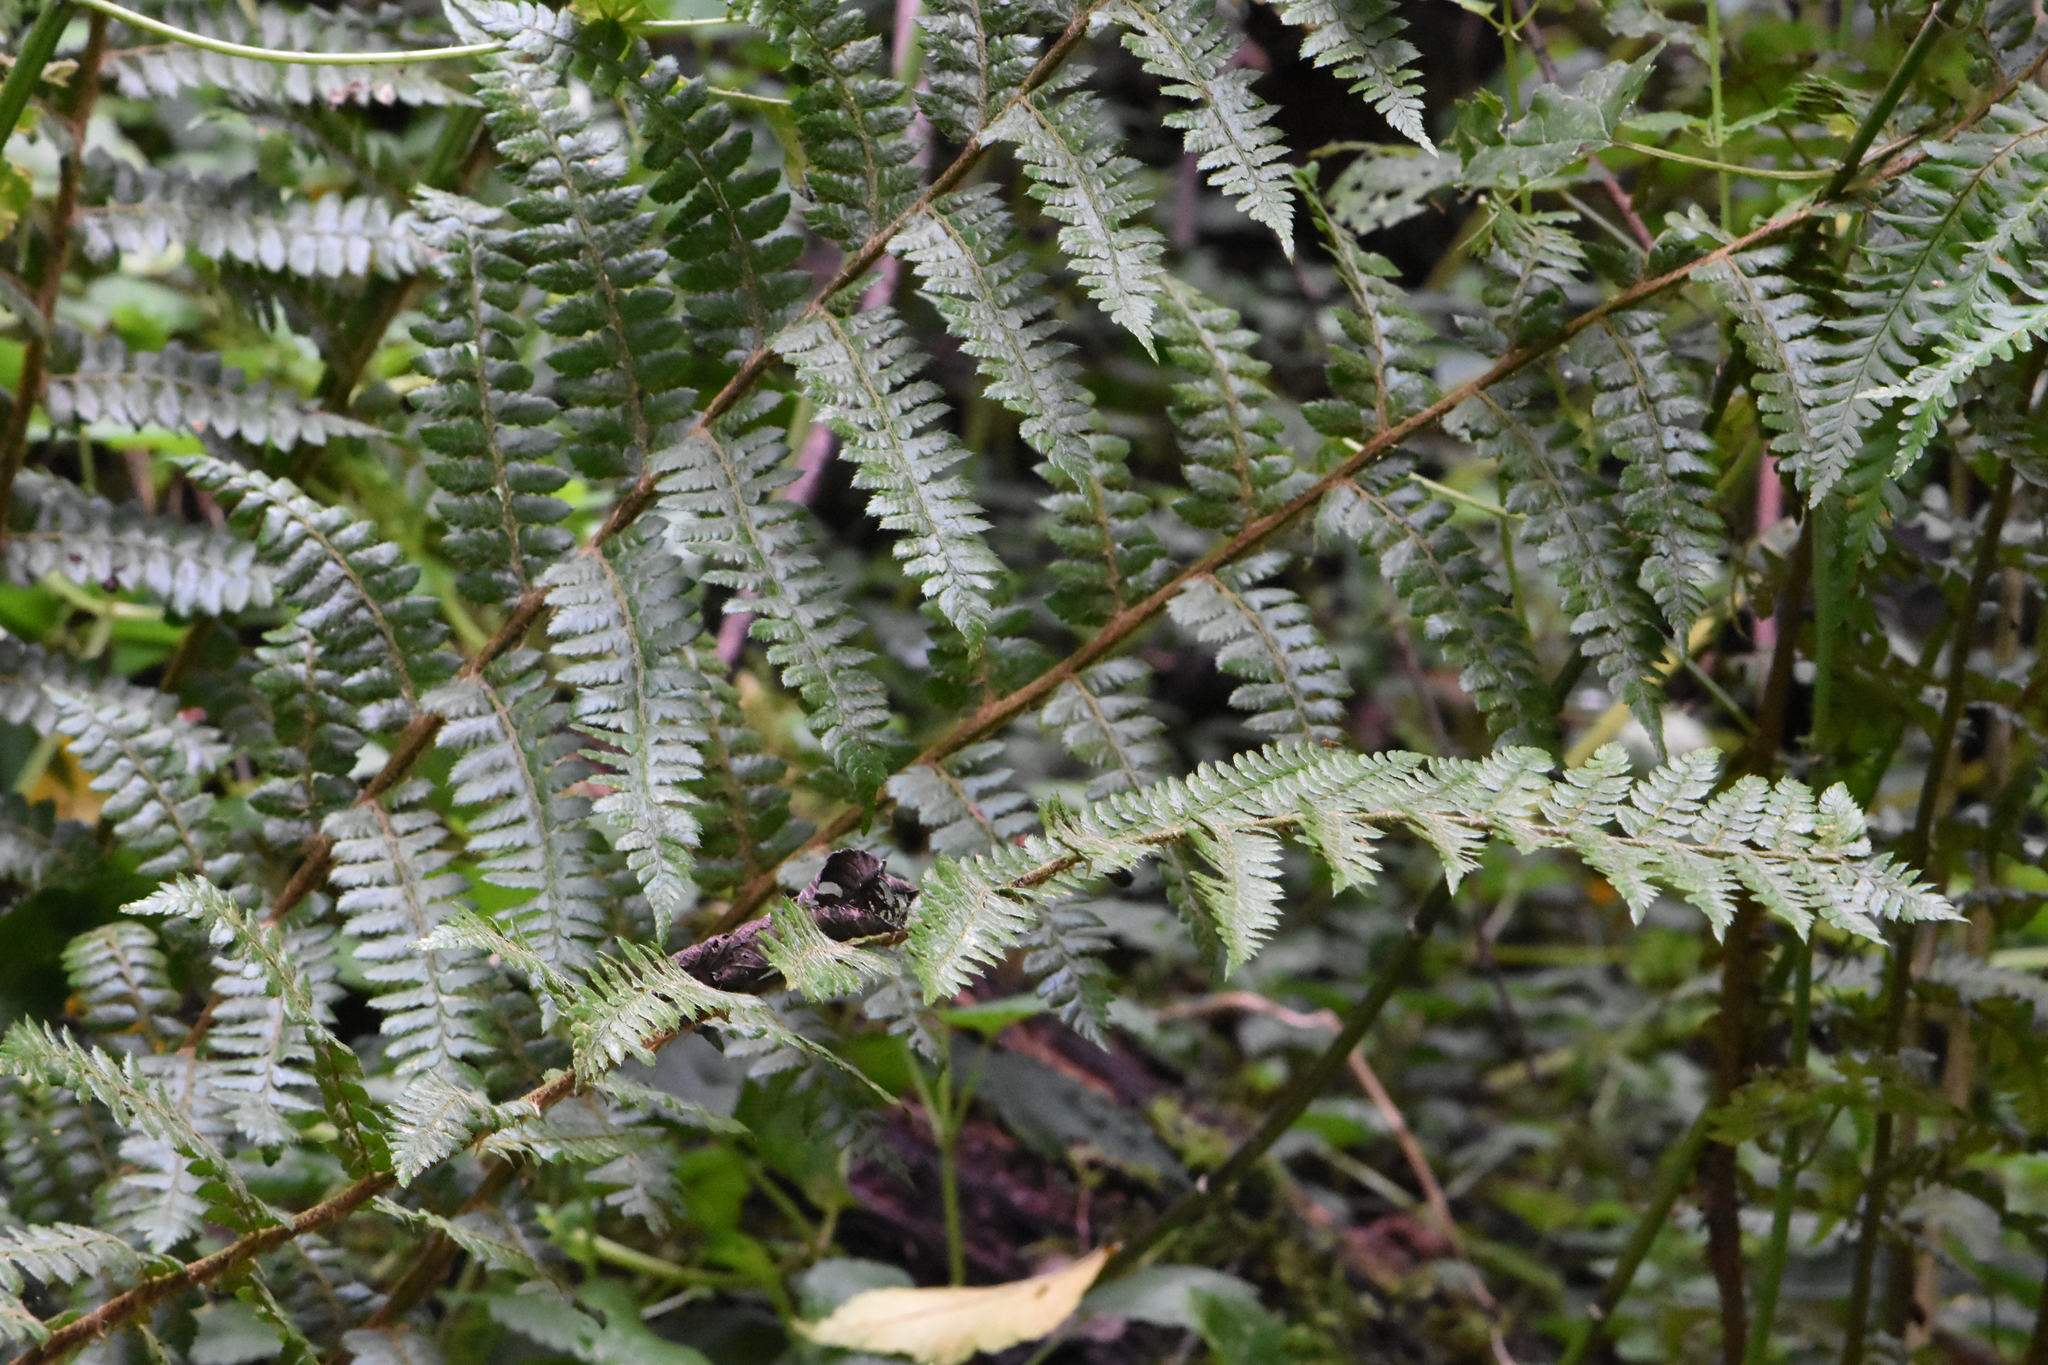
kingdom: Plantae
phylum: Tracheophyta
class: Polypodiopsida
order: Polypodiales
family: Dryopteridaceae
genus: Polystichum
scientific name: Polystichum braunii
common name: Braun's holly fern
